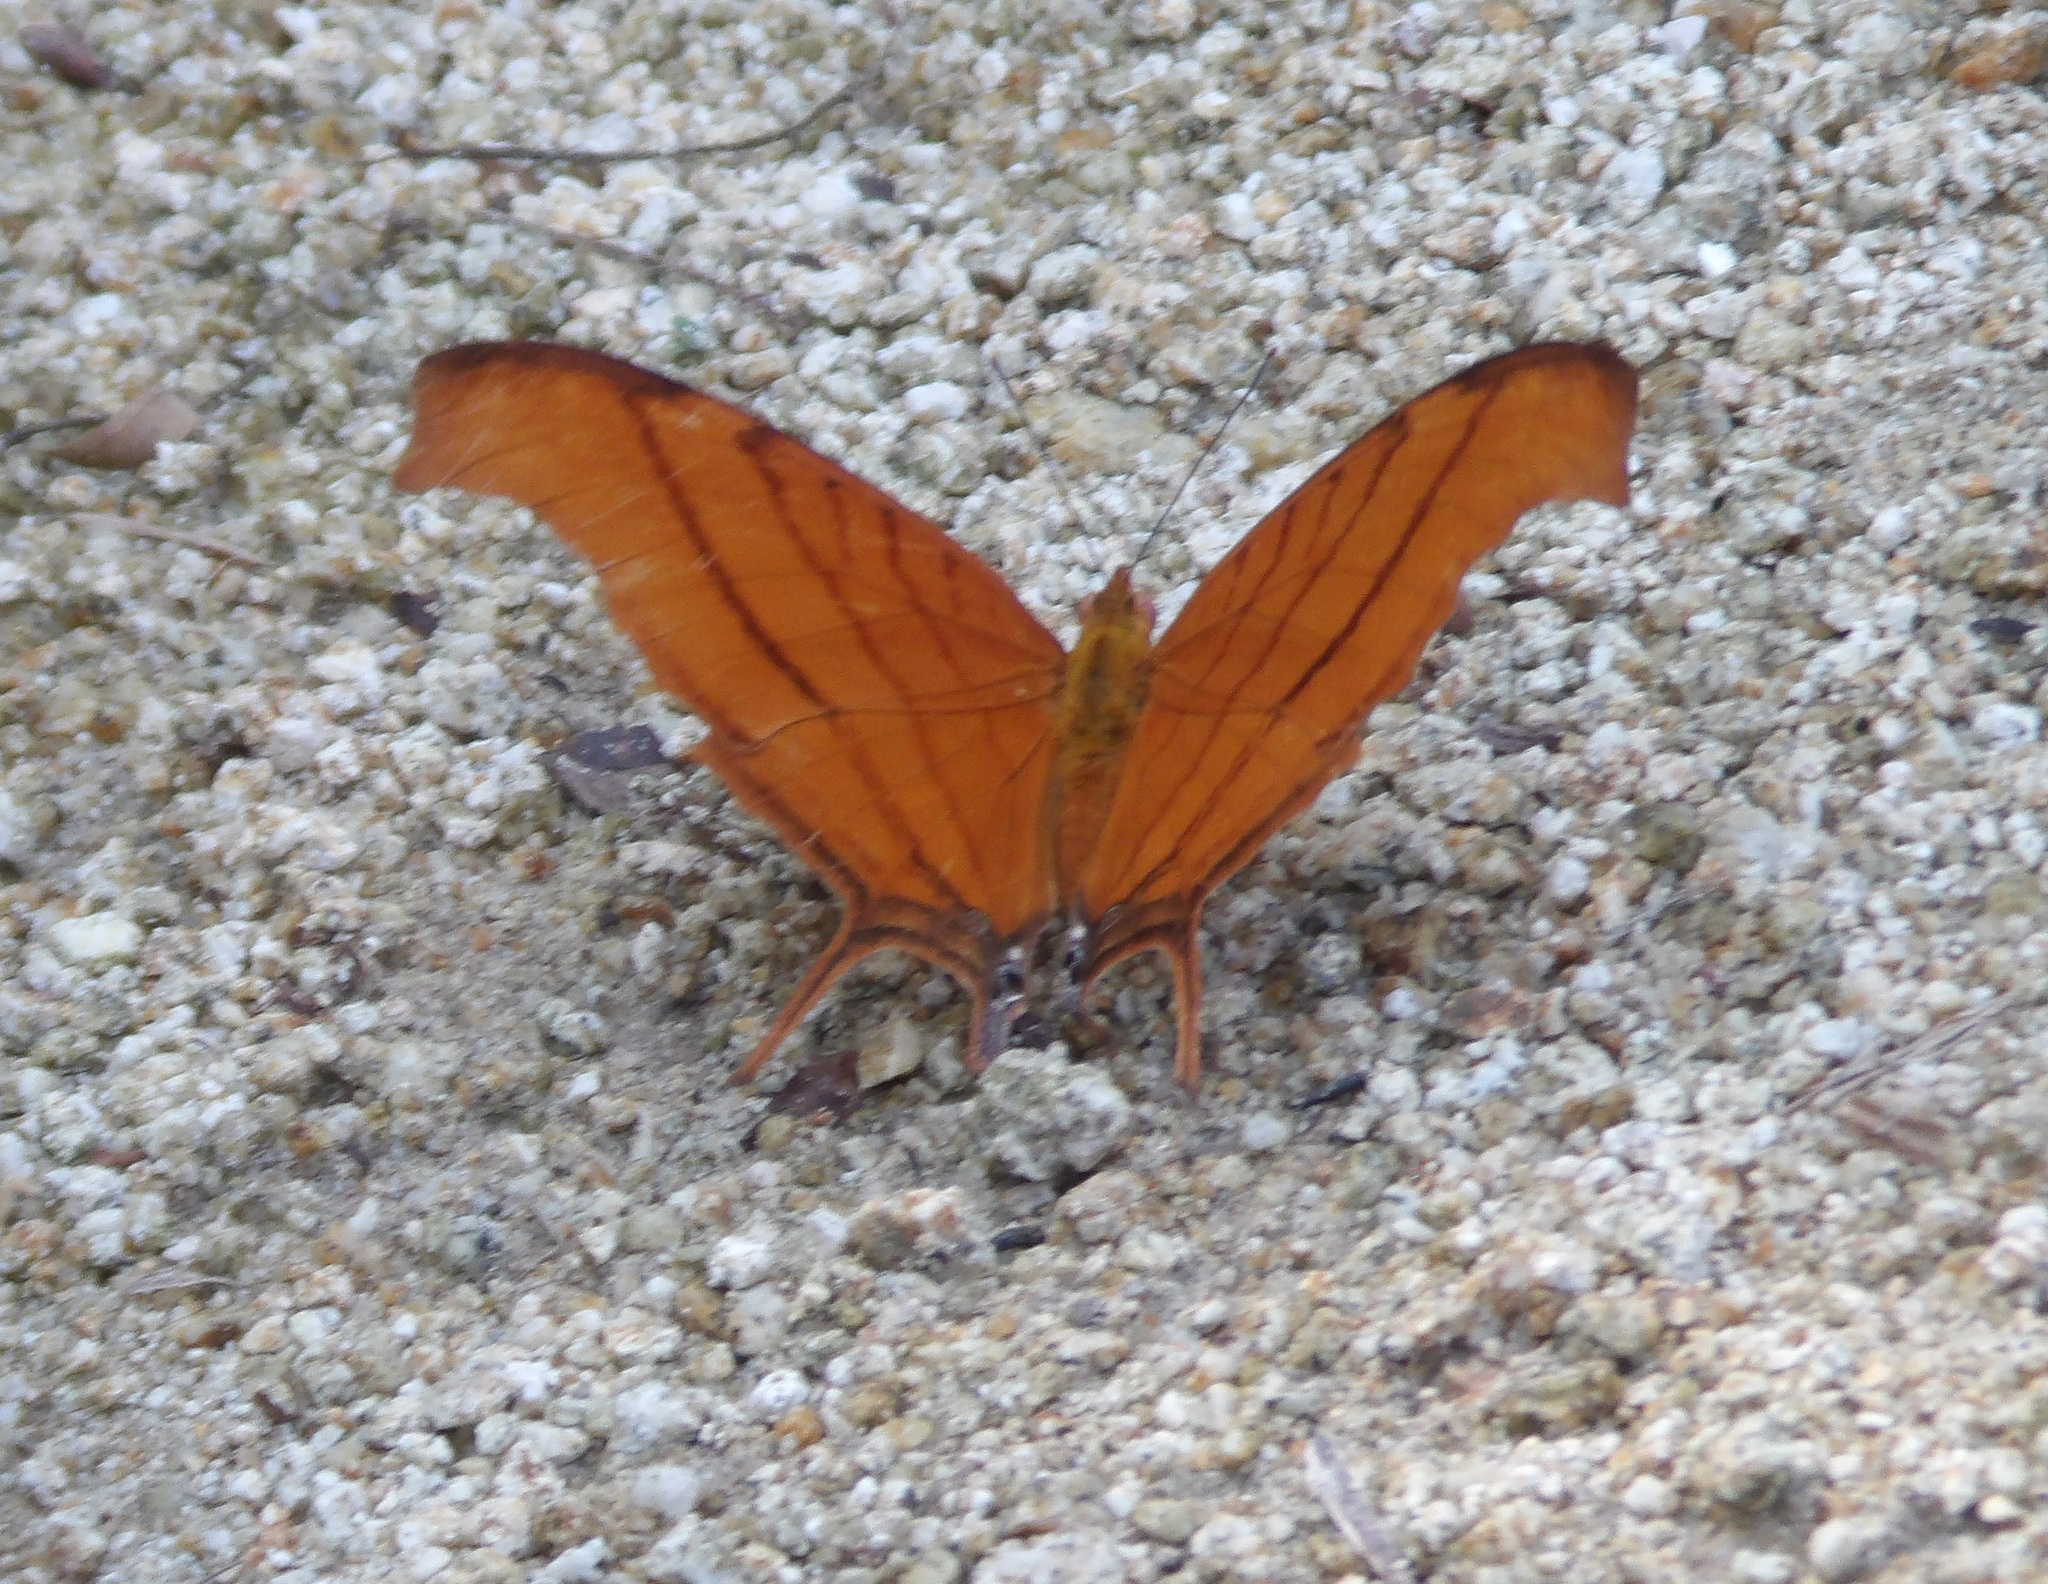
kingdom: Animalia
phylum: Arthropoda
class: Insecta
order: Lepidoptera
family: Nymphalidae
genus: Marpesia
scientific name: Marpesia petreus
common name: Red dagger wing
